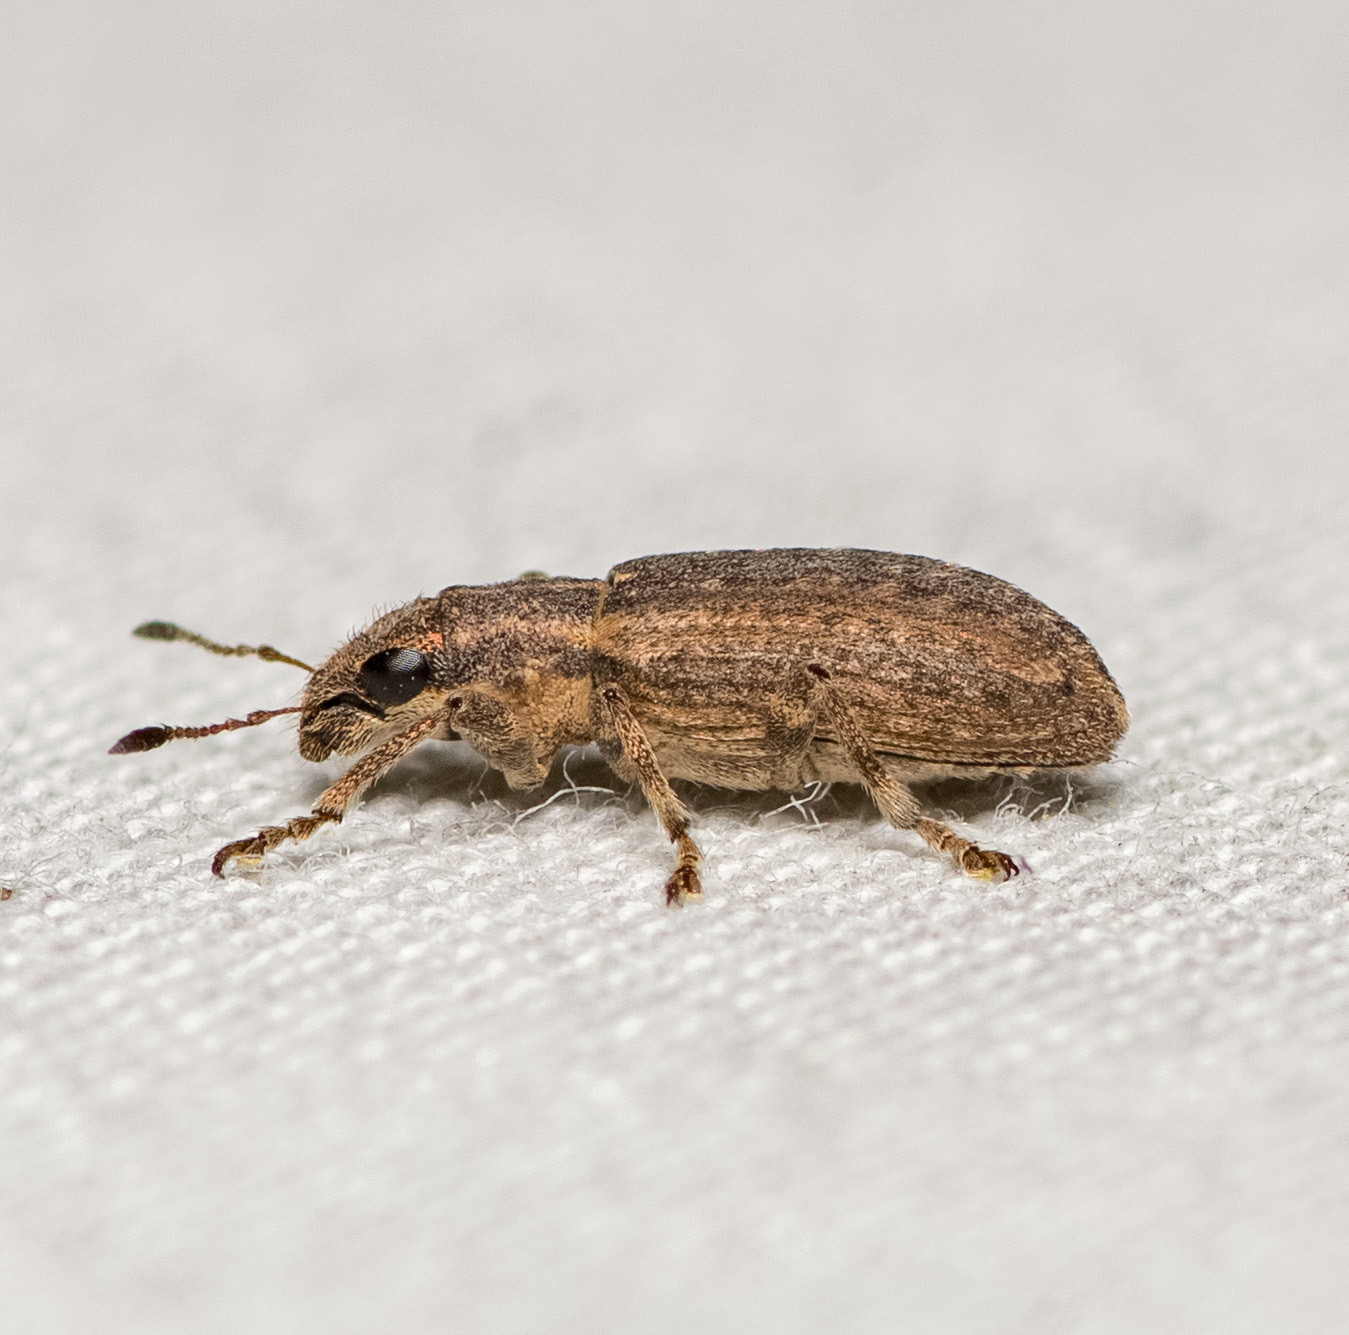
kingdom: Animalia
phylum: Arthropoda
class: Insecta
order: Coleoptera
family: Curculionidae
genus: Sitones
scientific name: Sitones californius
